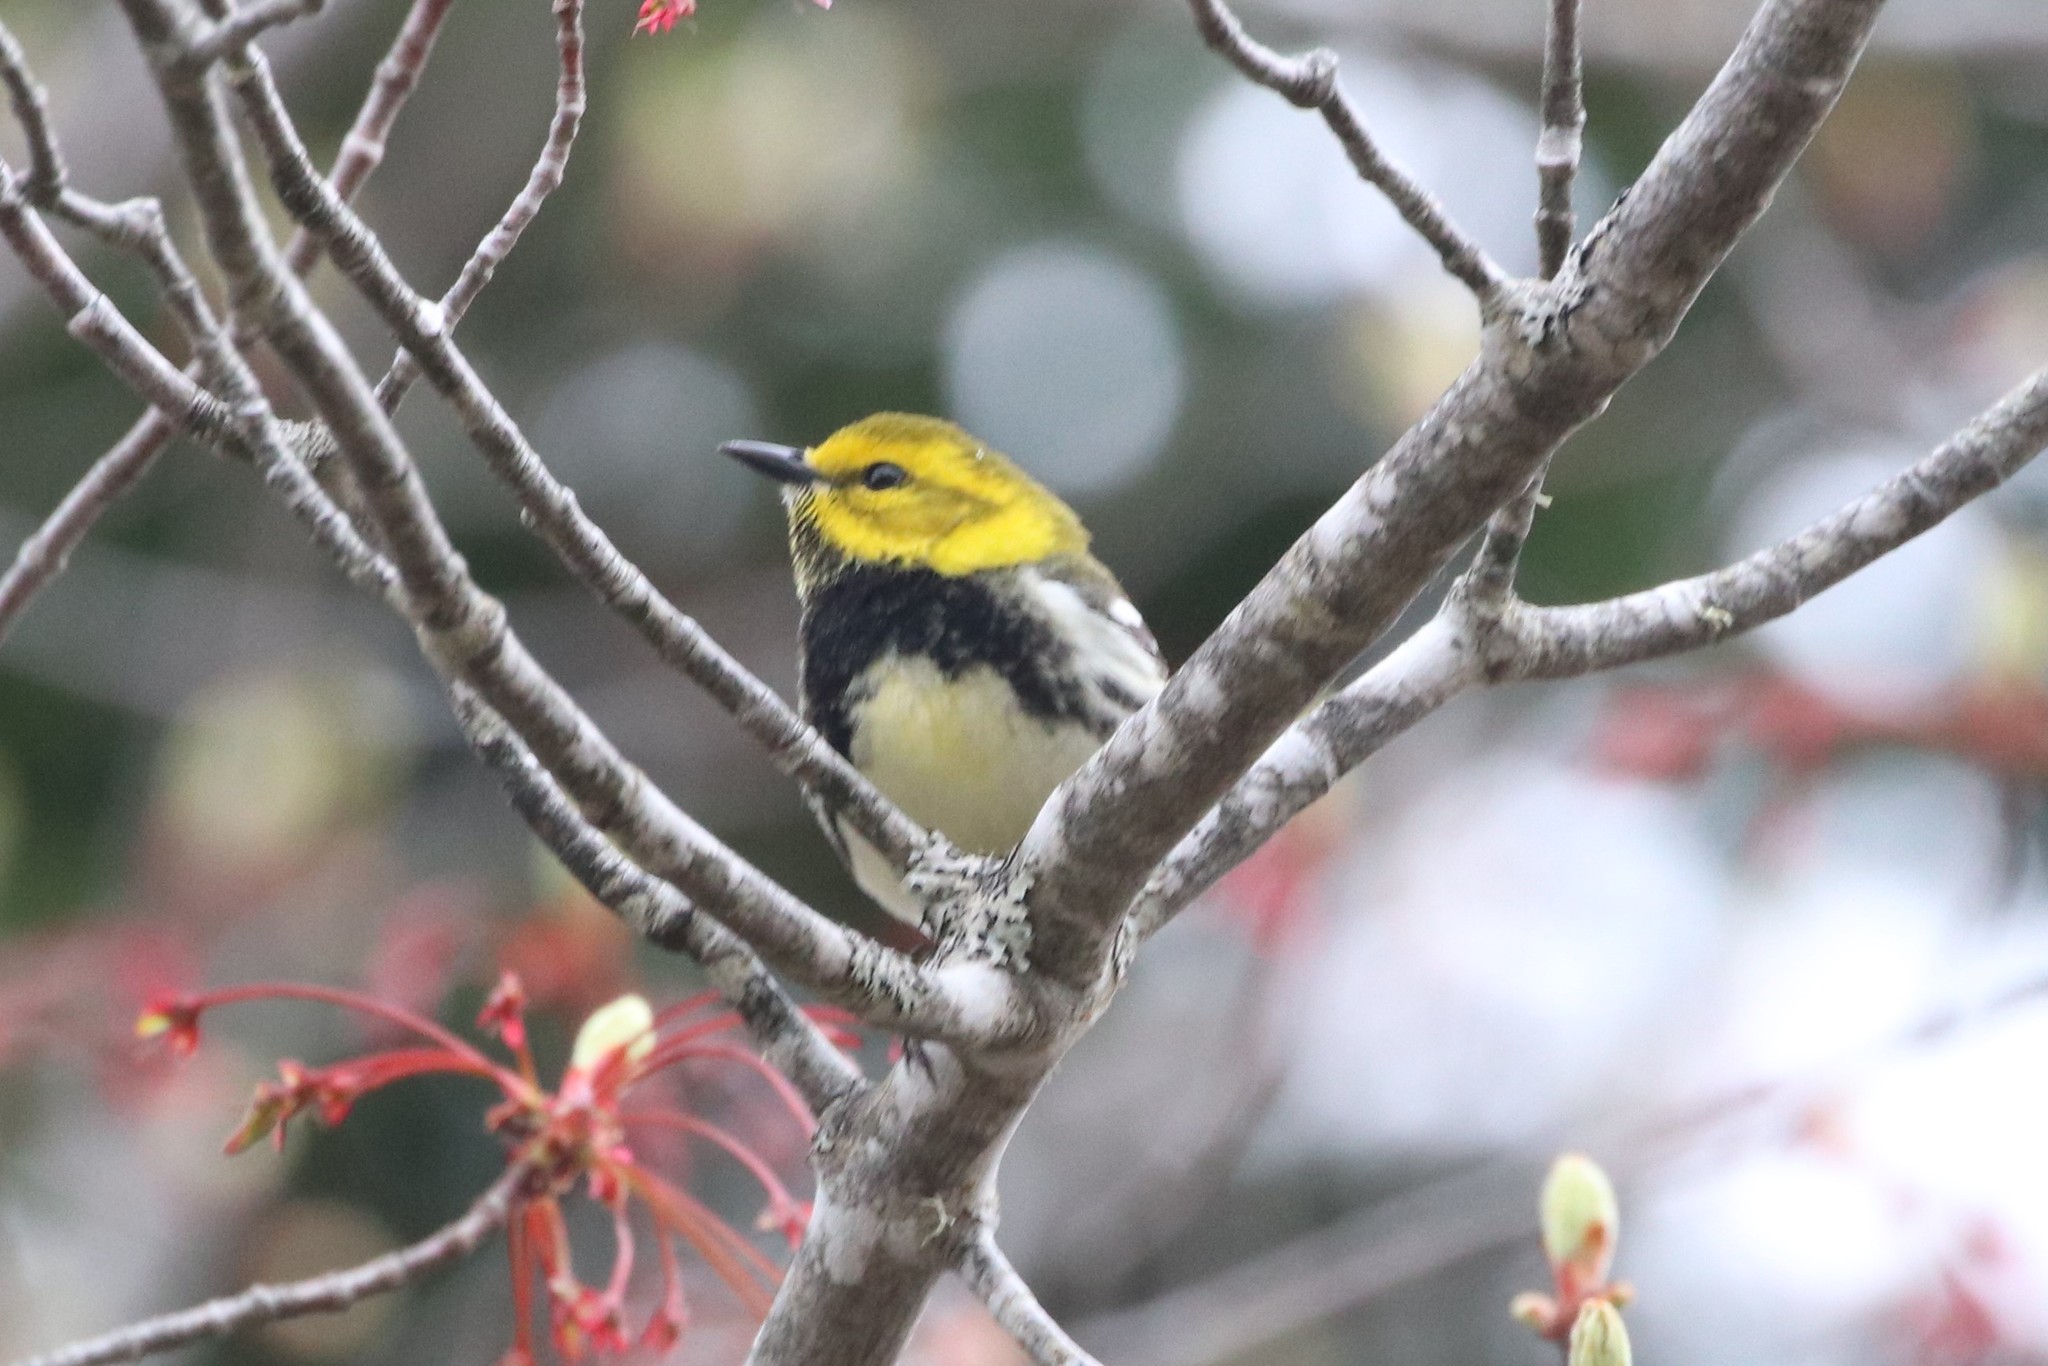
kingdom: Animalia
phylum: Chordata
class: Aves
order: Passeriformes
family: Parulidae
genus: Setophaga
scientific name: Setophaga virens
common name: Black-throated green warbler
